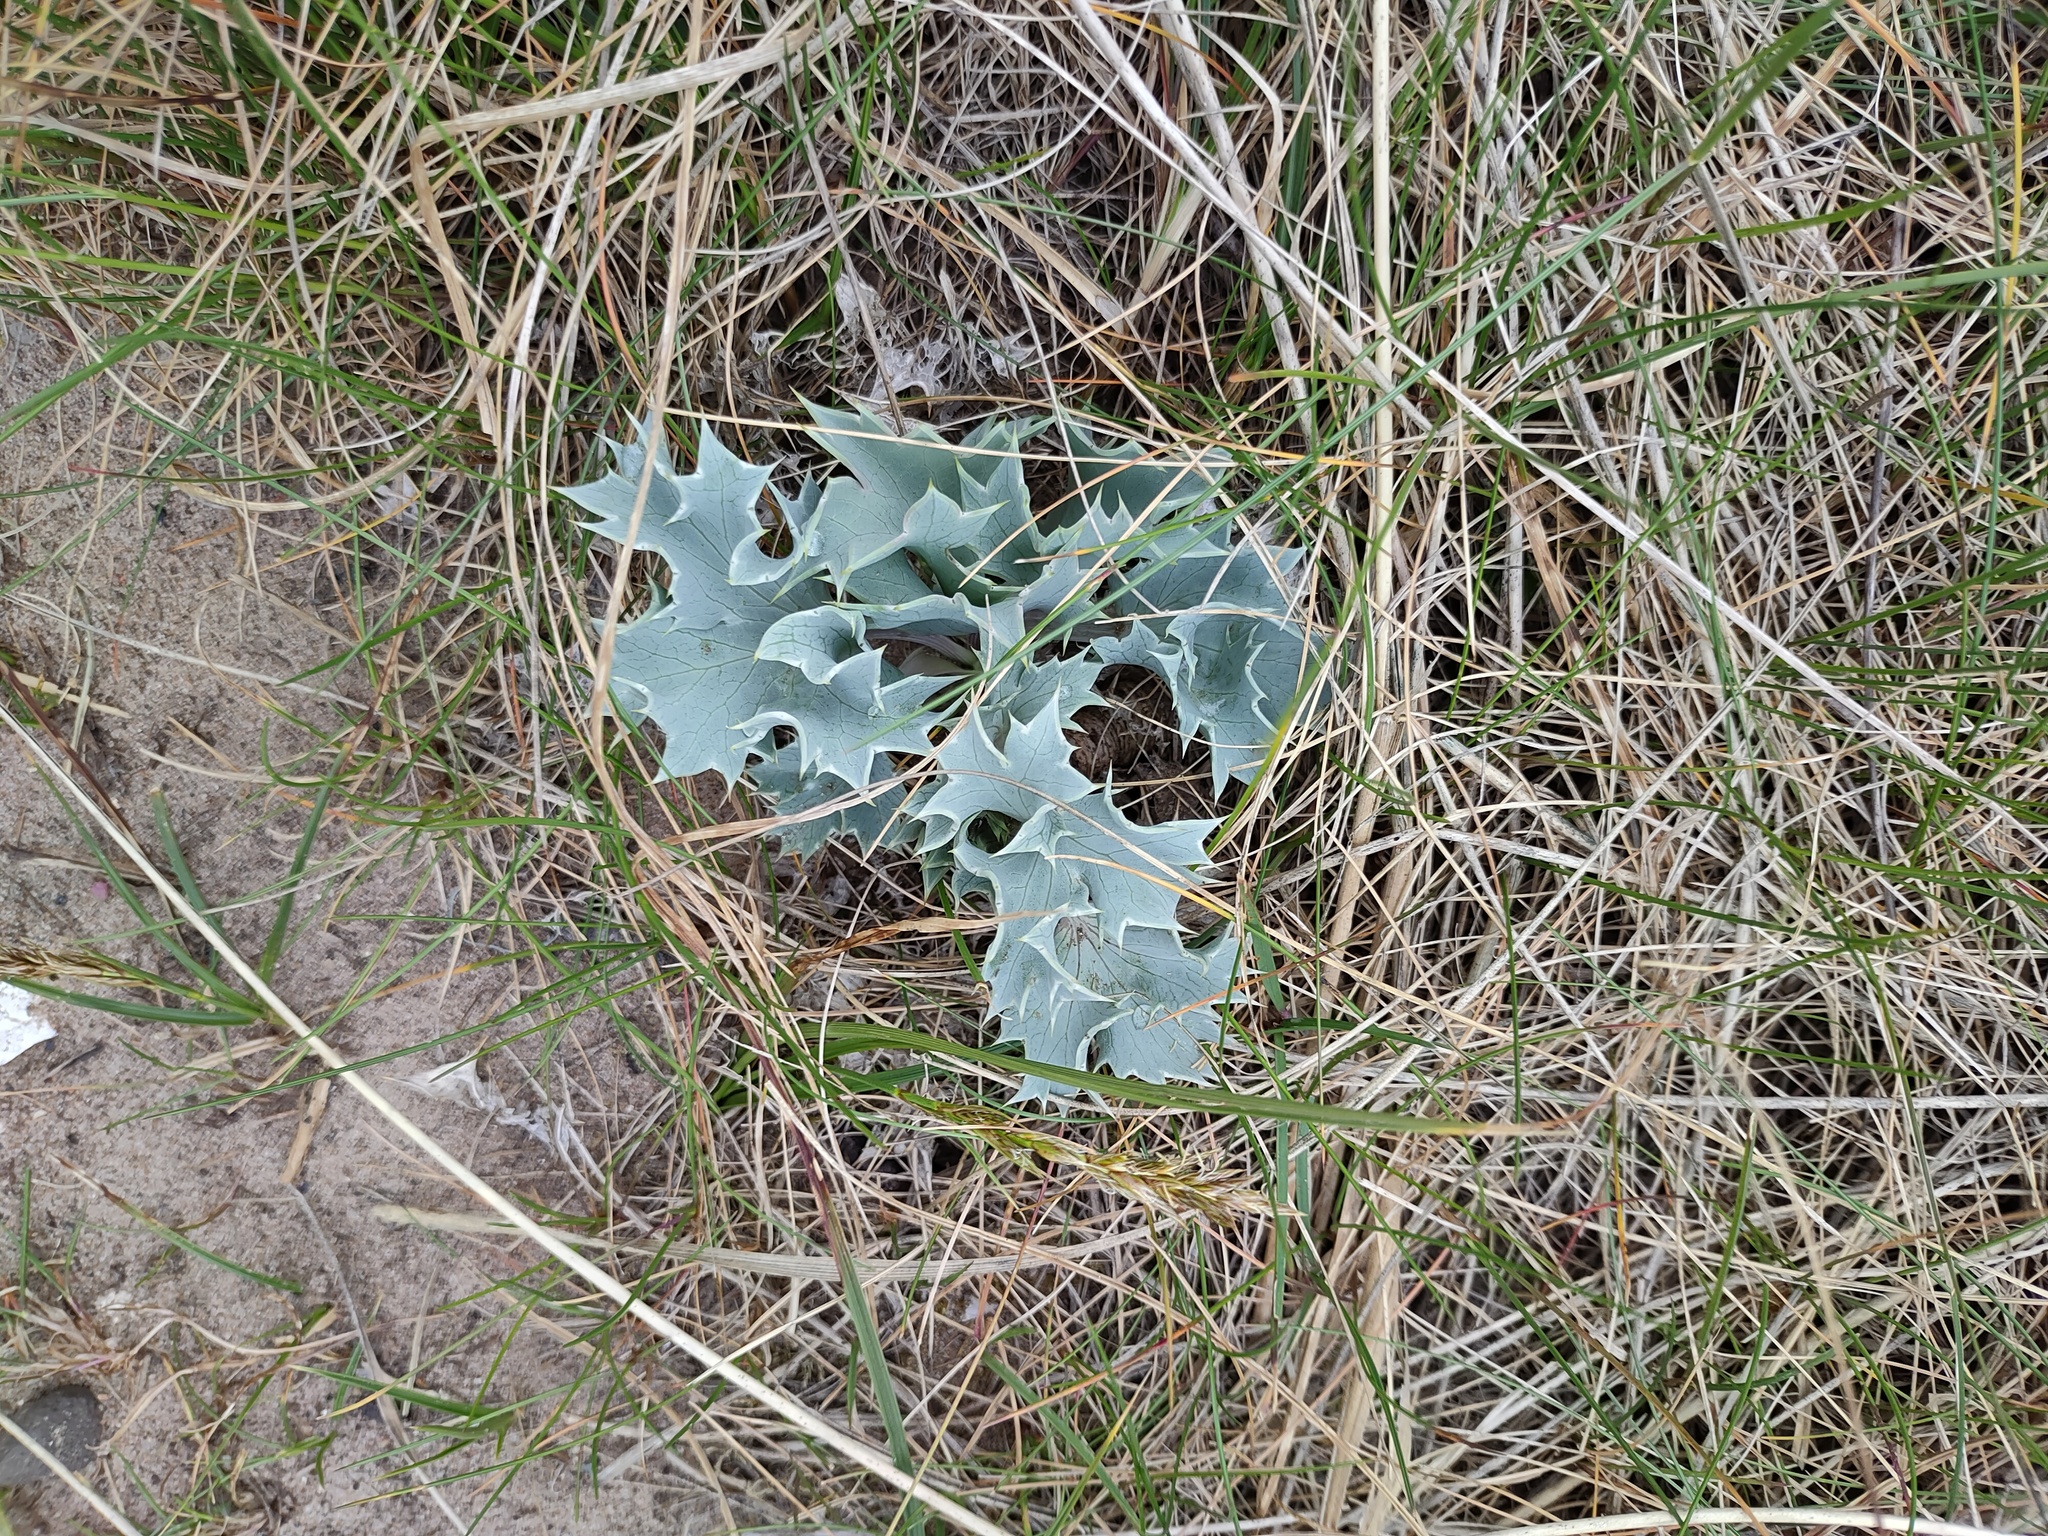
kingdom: Plantae
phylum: Tracheophyta
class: Magnoliopsida
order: Apiales
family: Apiaceae
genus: Eryngium
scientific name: Eryngium maritimum
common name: Sea-holly
